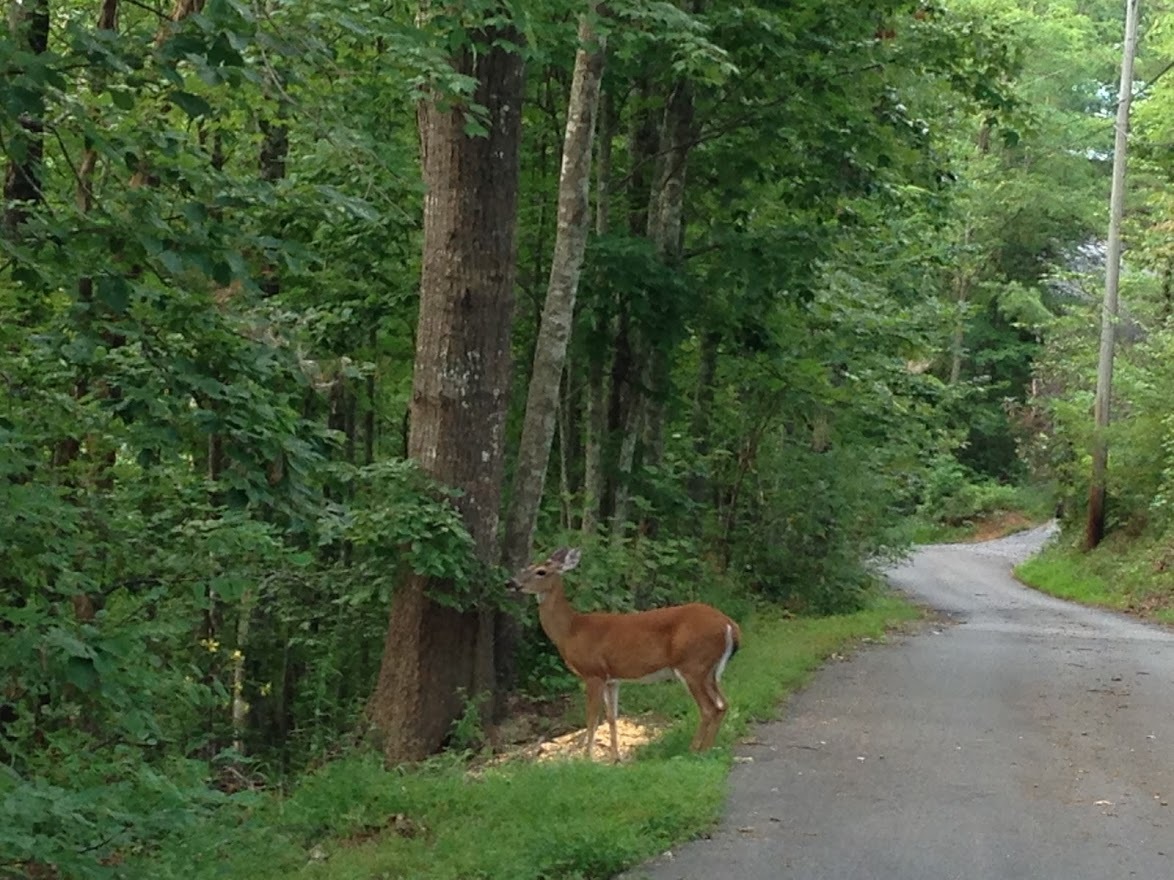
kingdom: Animalia
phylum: Chordata
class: Mammalia
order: Artiodactyla
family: Cervidae
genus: Odocoileus
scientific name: Odocoileus virginianus
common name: White-tailed deer
